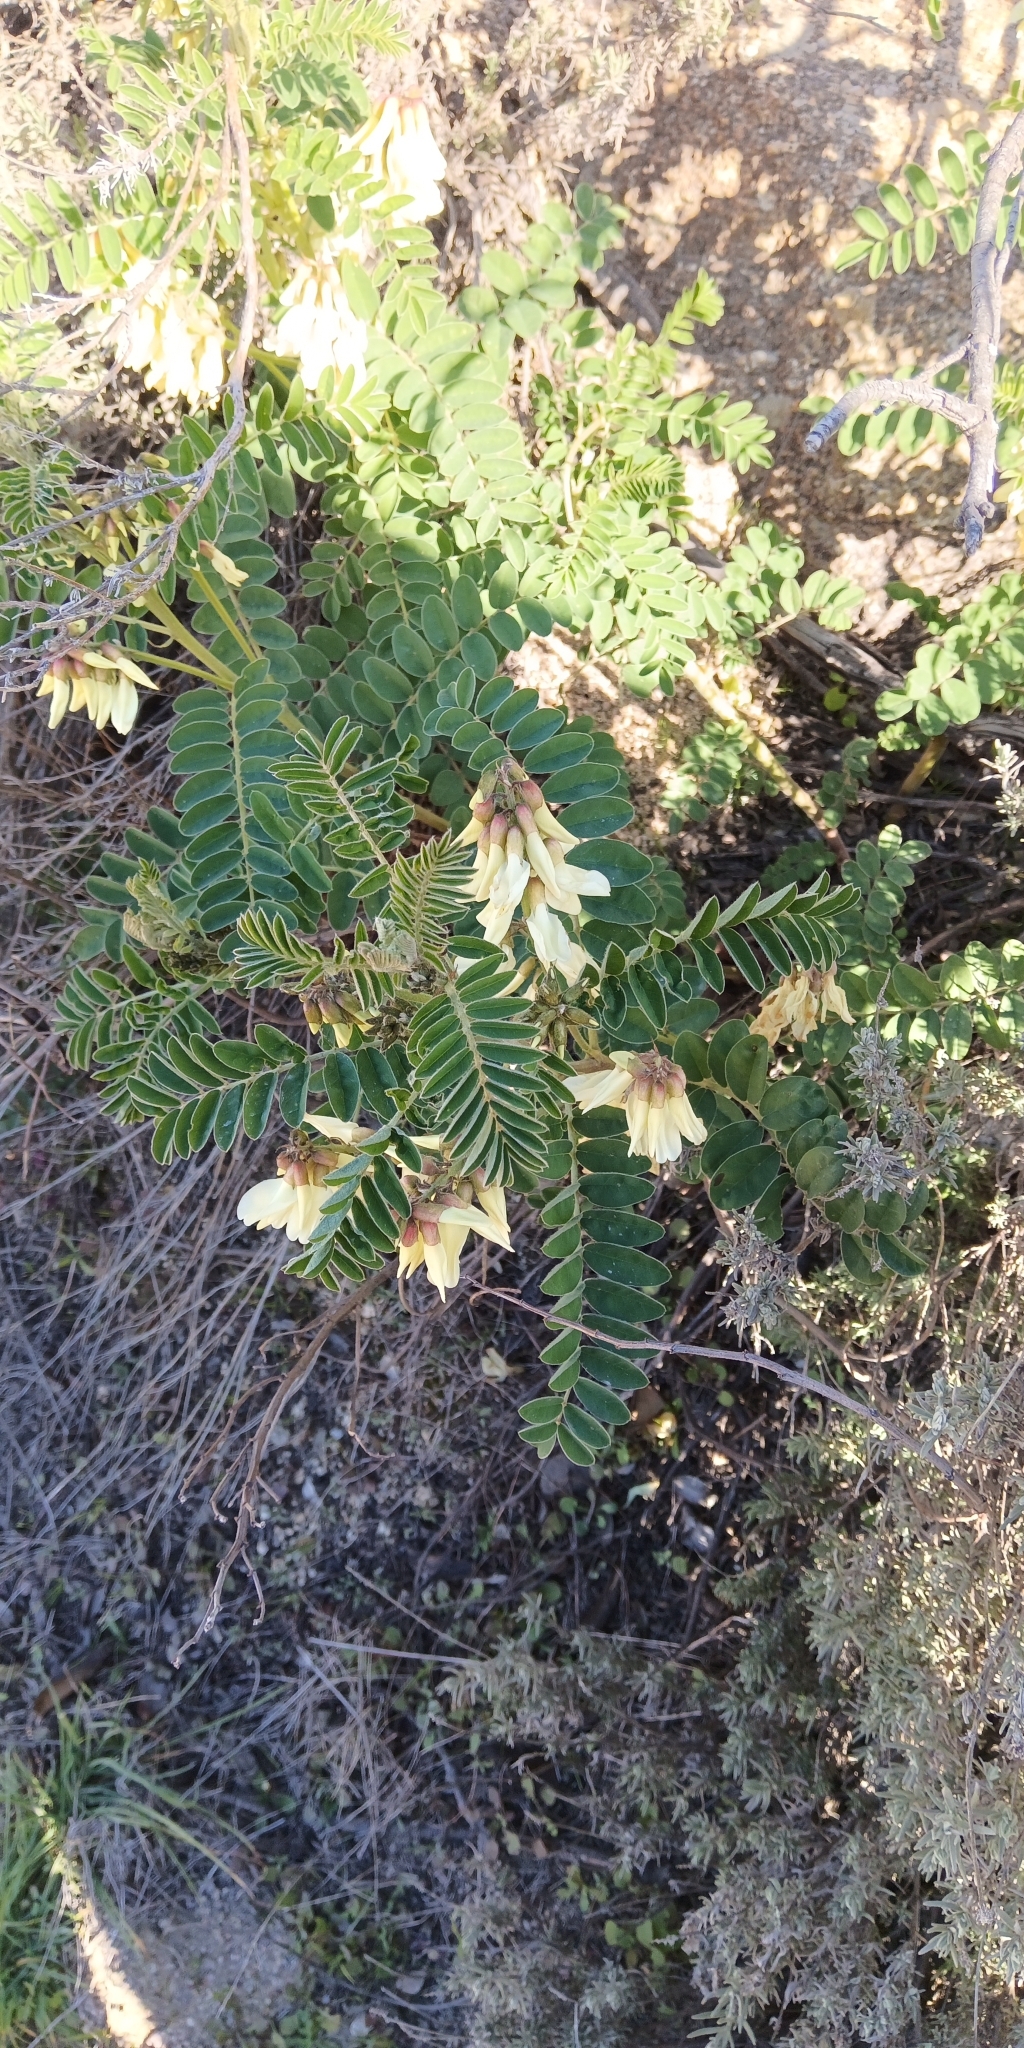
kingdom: Plantae
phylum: Tracheophyta
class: Magnoliopsida
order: Fabales
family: Fabaceae
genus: Erophaca
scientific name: Erophaca baetica
